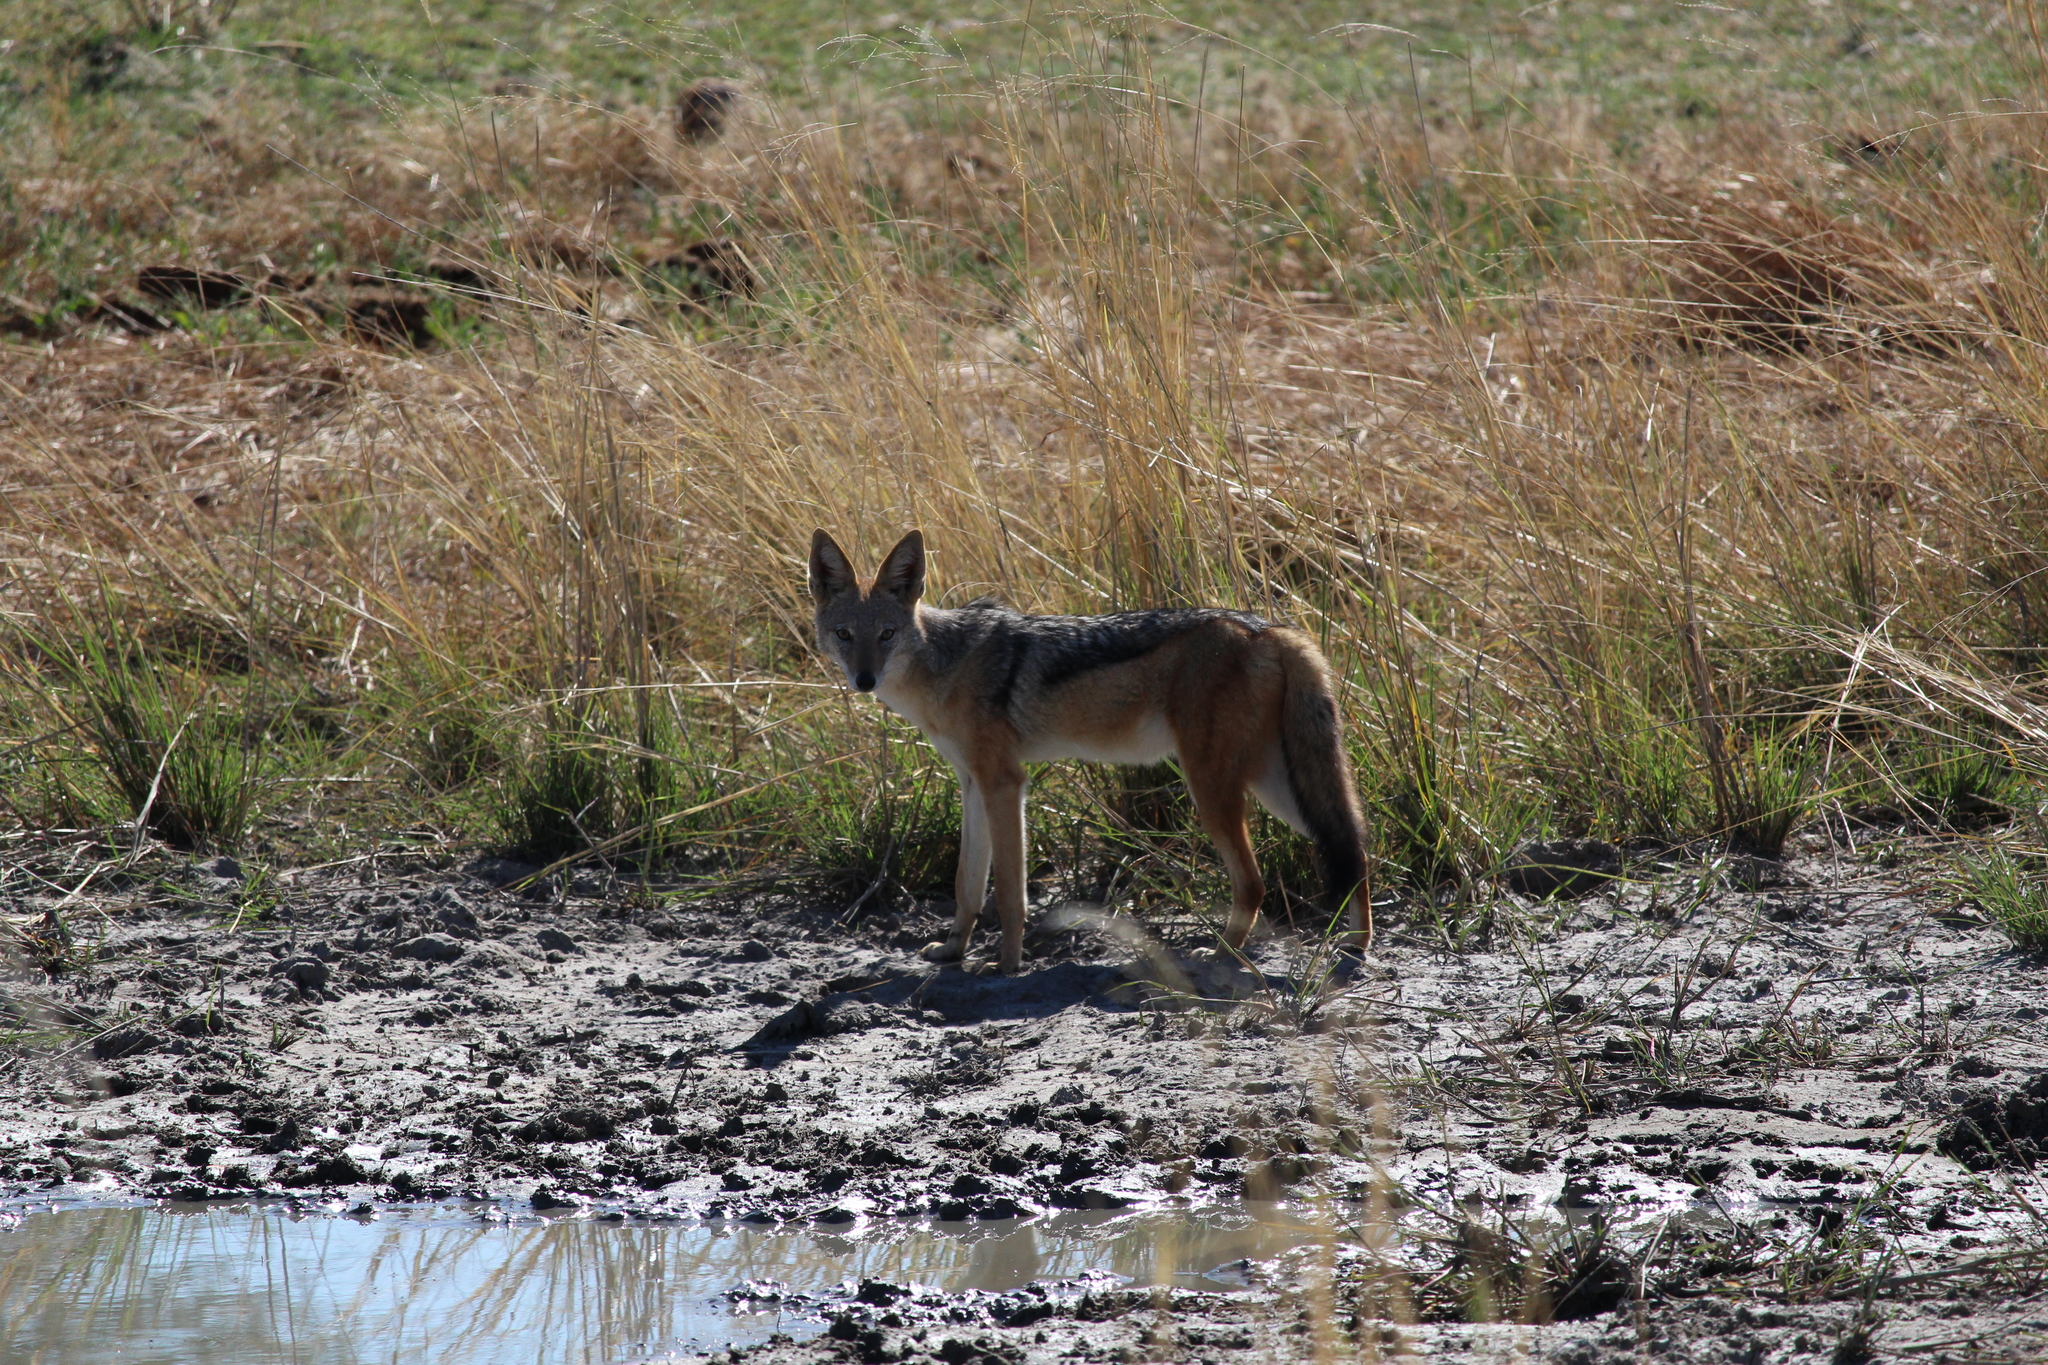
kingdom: Animalia
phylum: Chordata
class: Mammalia
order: Carnivora
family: Canidae
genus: Lupulella
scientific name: Lupulella
